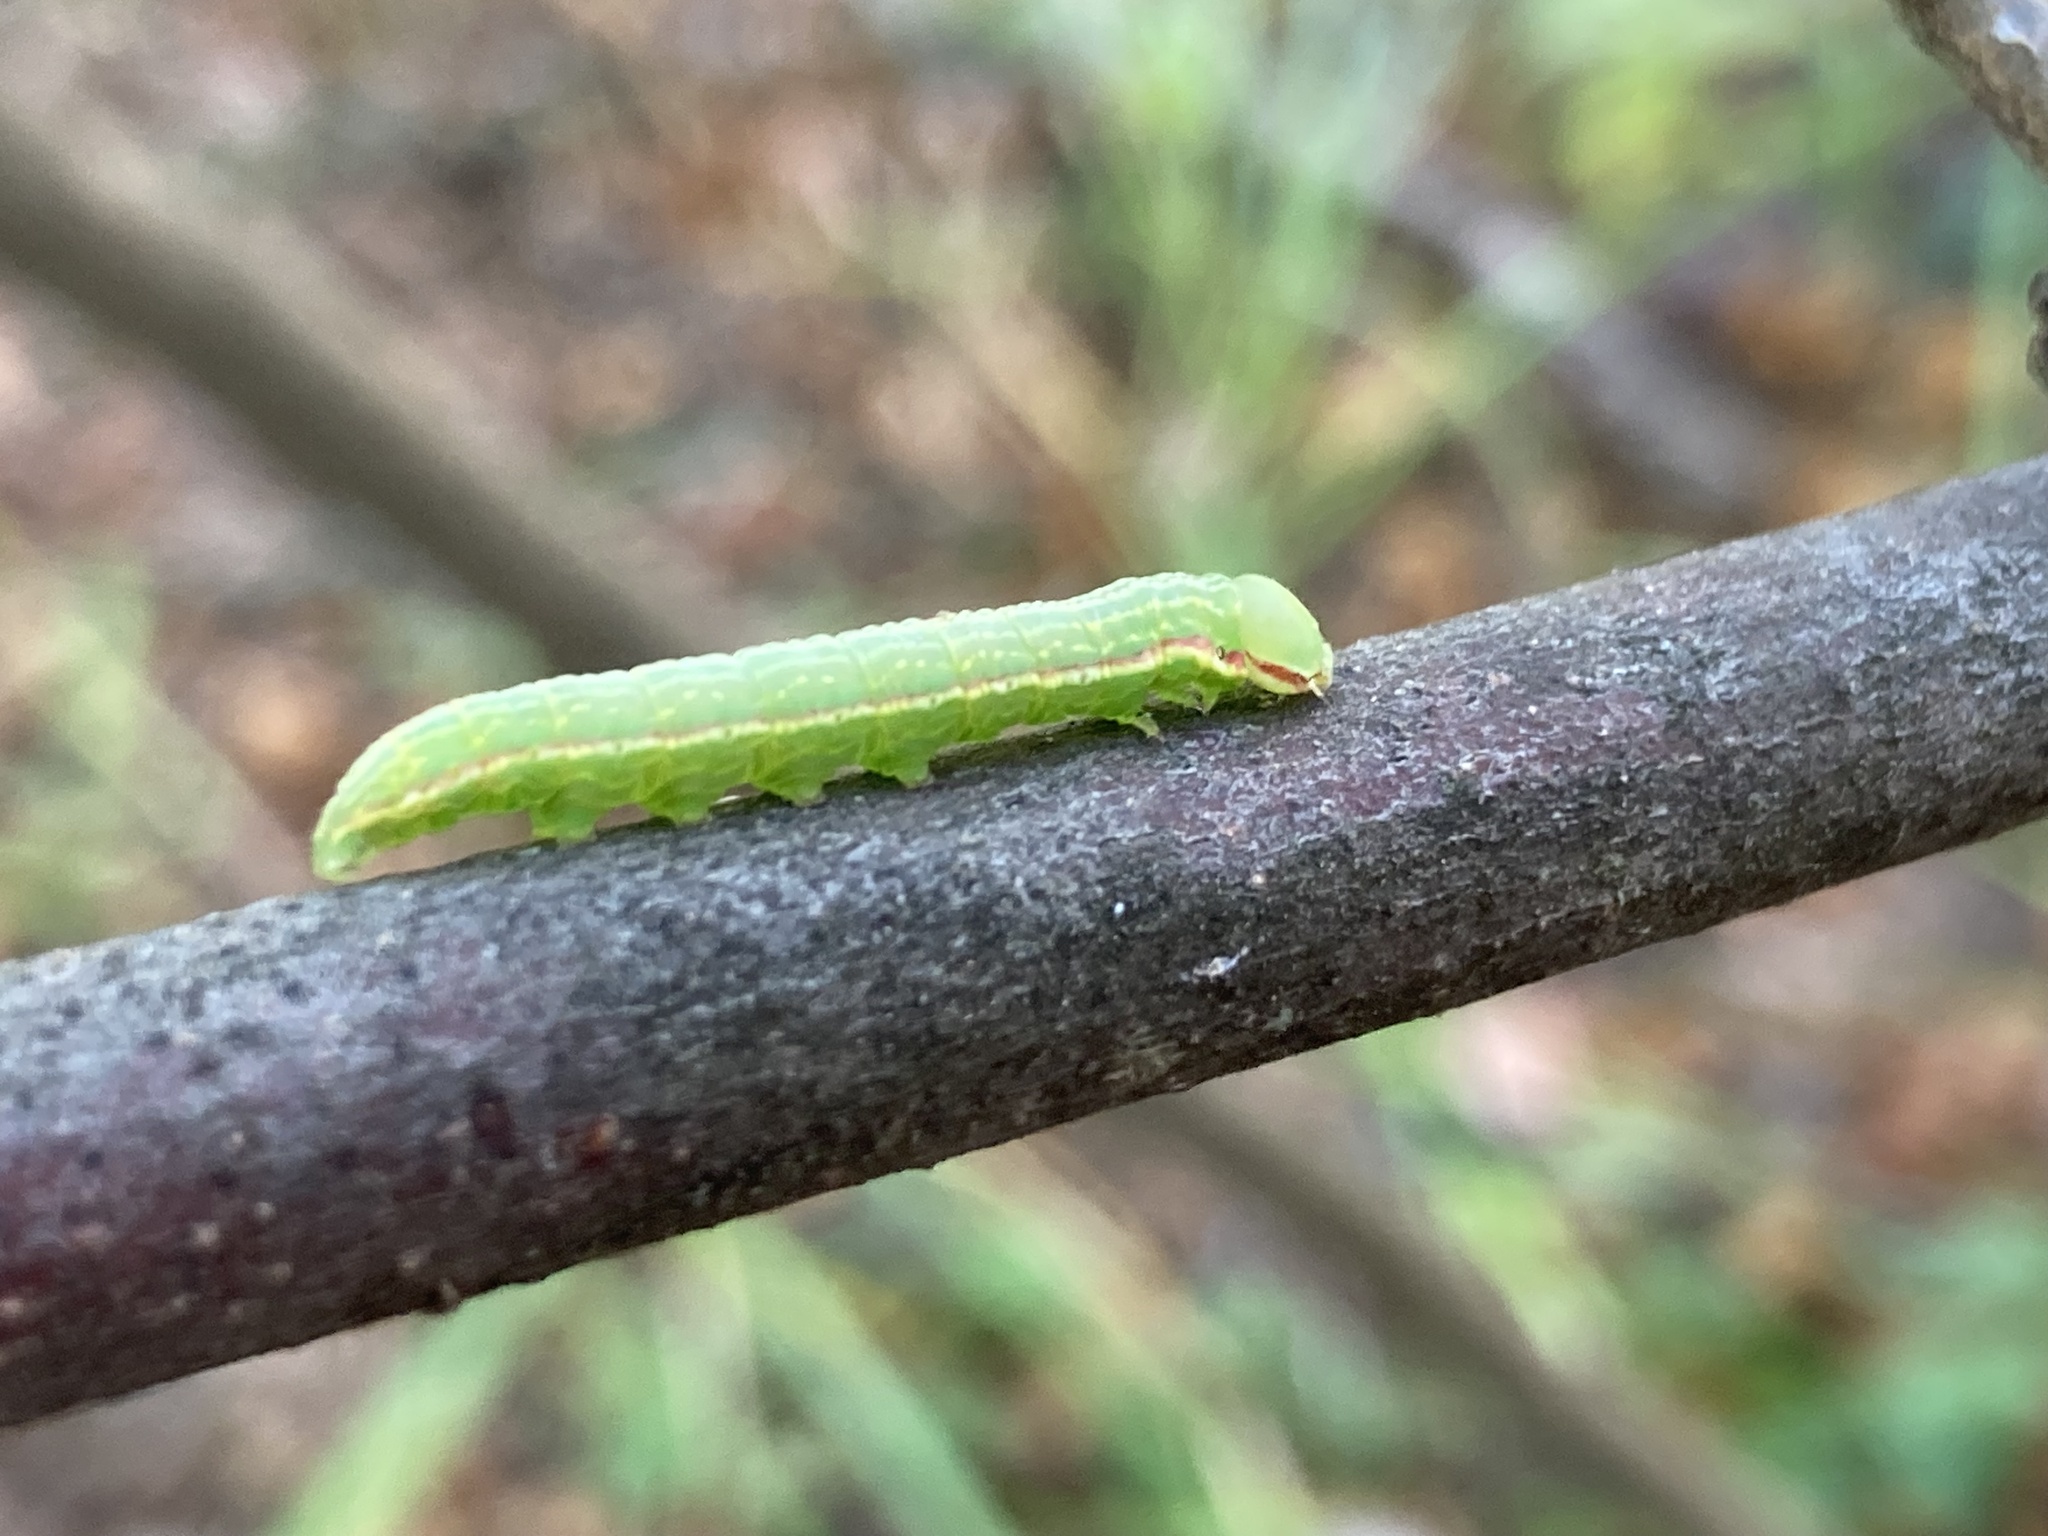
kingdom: Animalia
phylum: Arthropoda
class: Insecta
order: Lepidoptera
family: Notodontidae
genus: Peridea
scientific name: Peridea angulosa
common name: Angulose prominent
